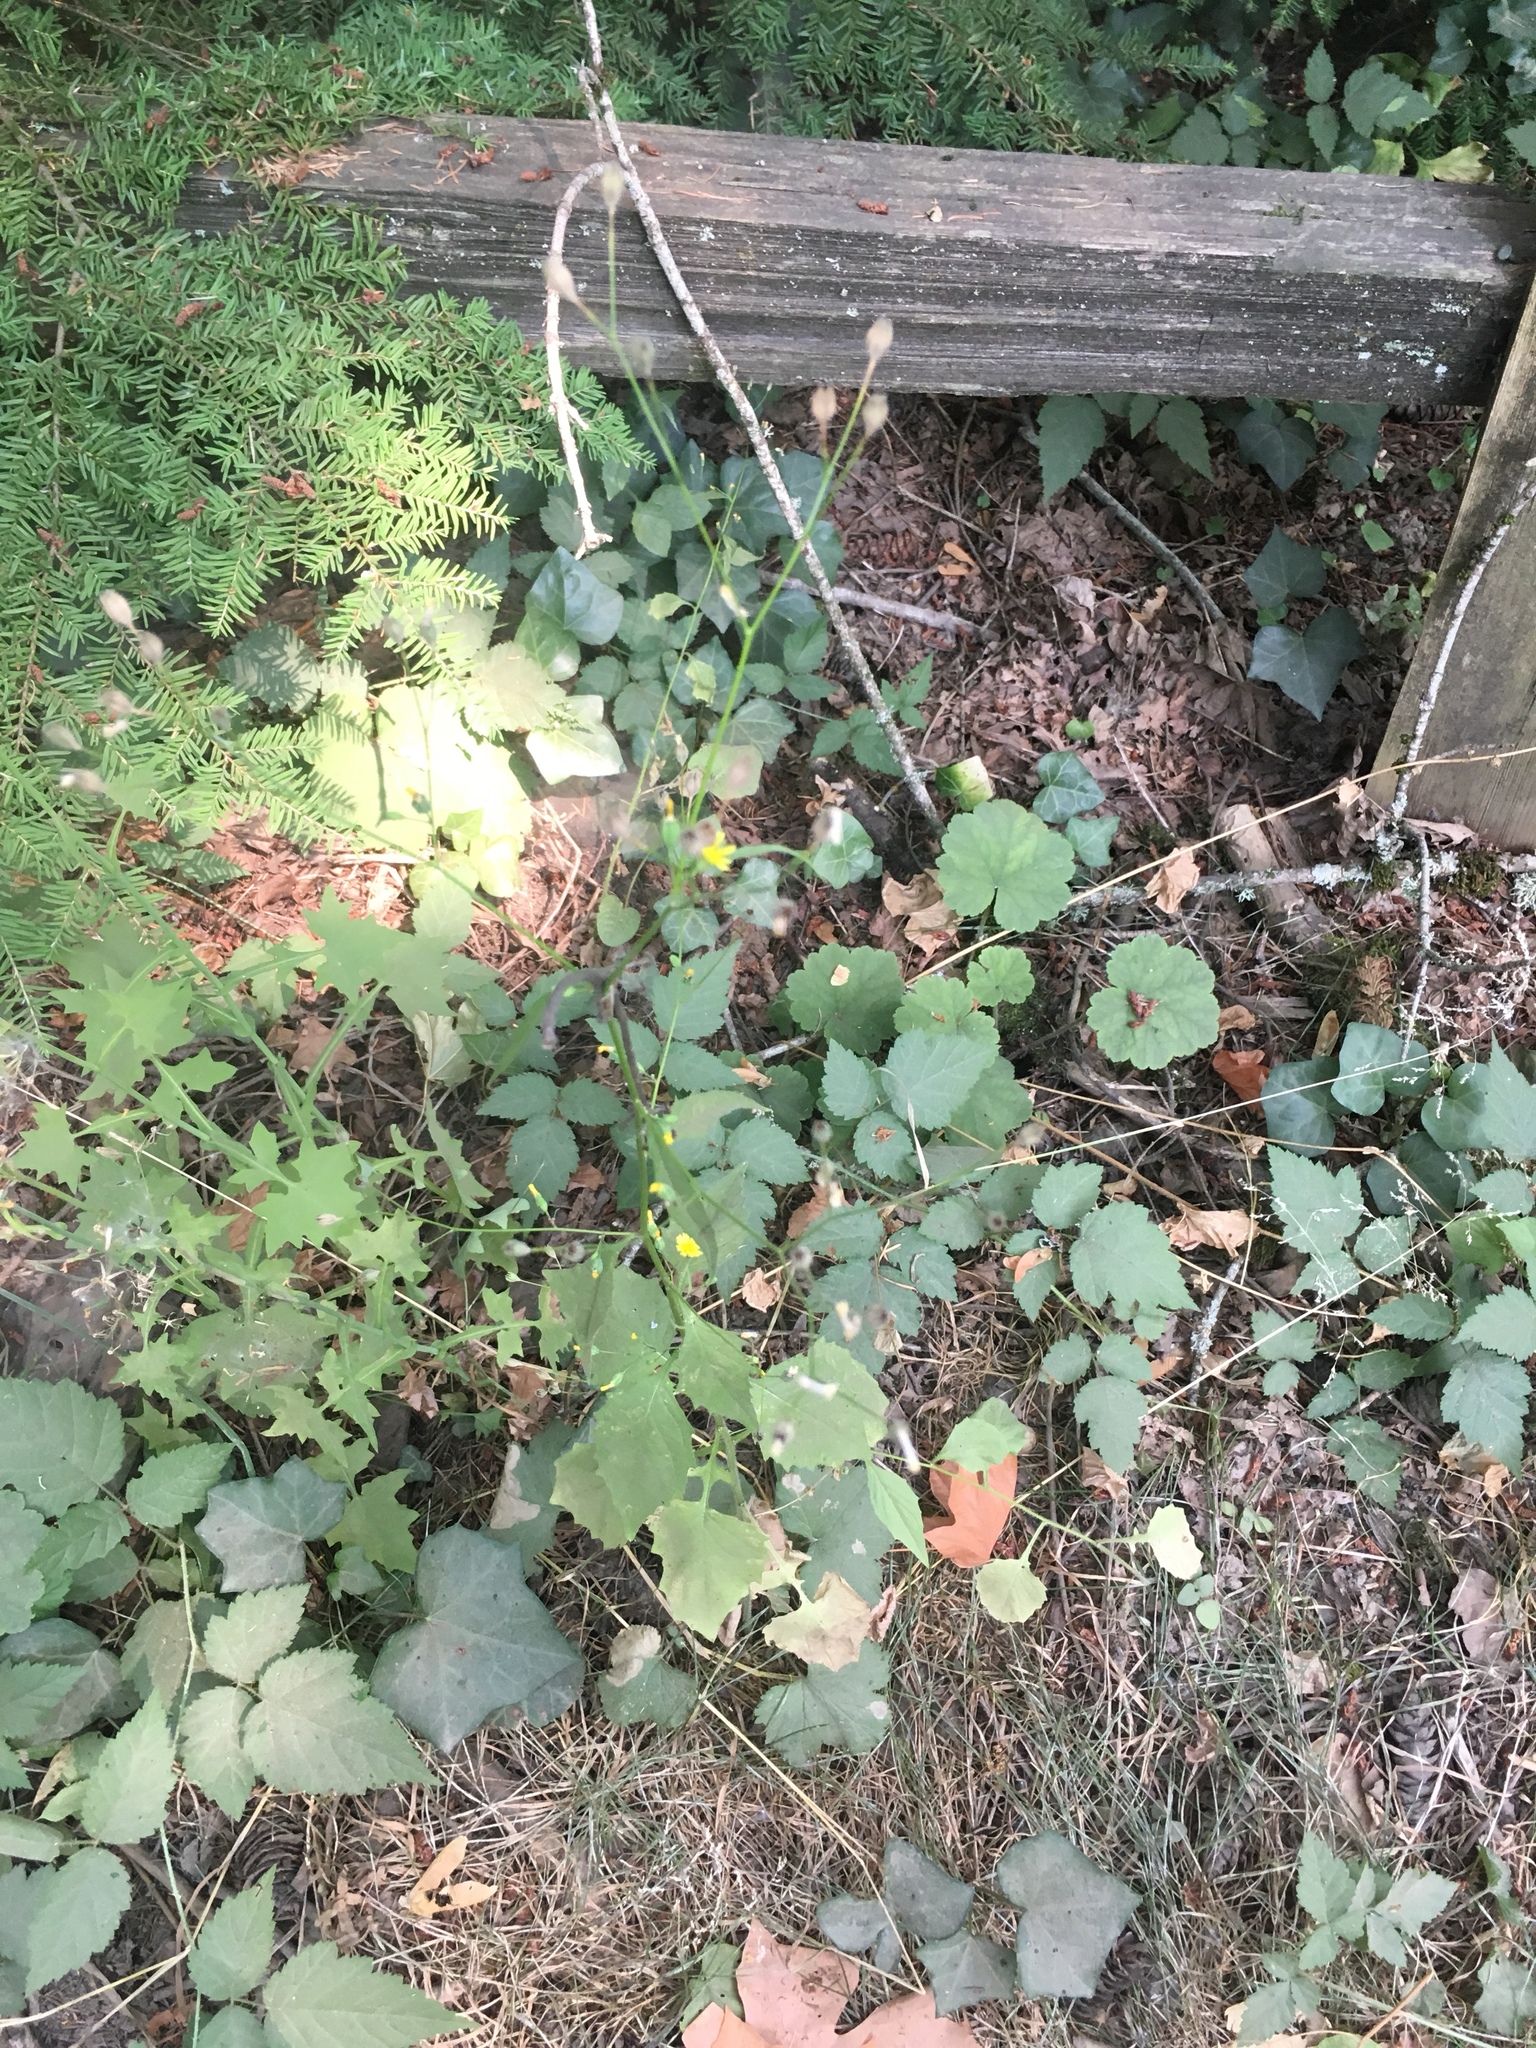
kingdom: Plantae
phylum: Tracheophyta
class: Magnoliopsida
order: Asterales
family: Asteraceae
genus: Mycelis
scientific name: Mycelis muralis
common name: Wall lettuce
